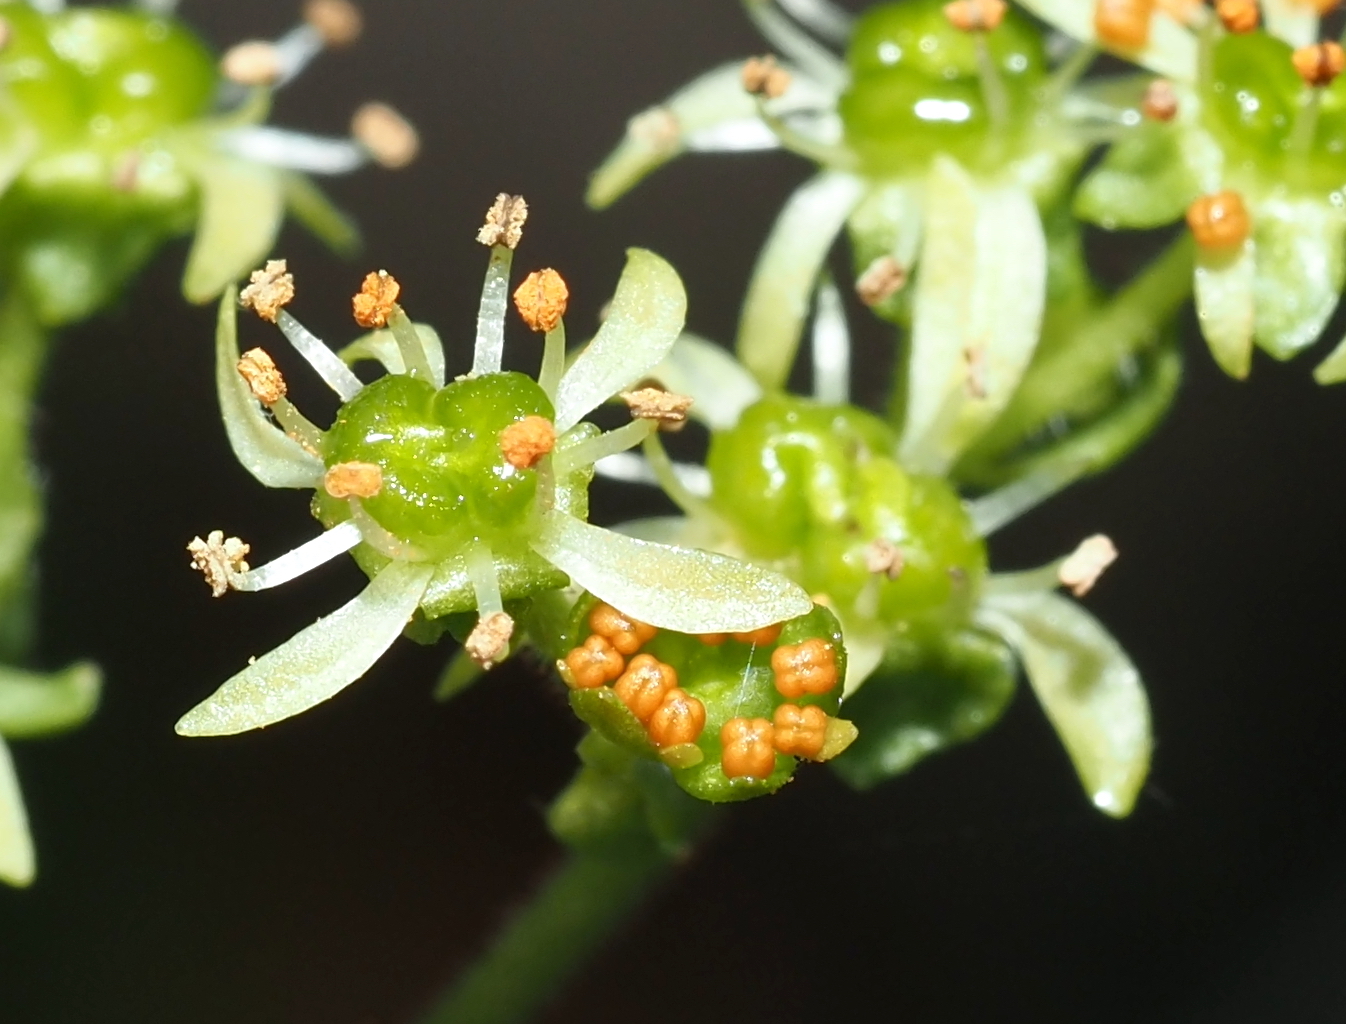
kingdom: Plantae
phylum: Tracheophyta
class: Magnoliopsida
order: Saxifragales
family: Saxifragaceae
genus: Micranthes
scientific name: Micranthes pensylvanica
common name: Marsh saxifrage
